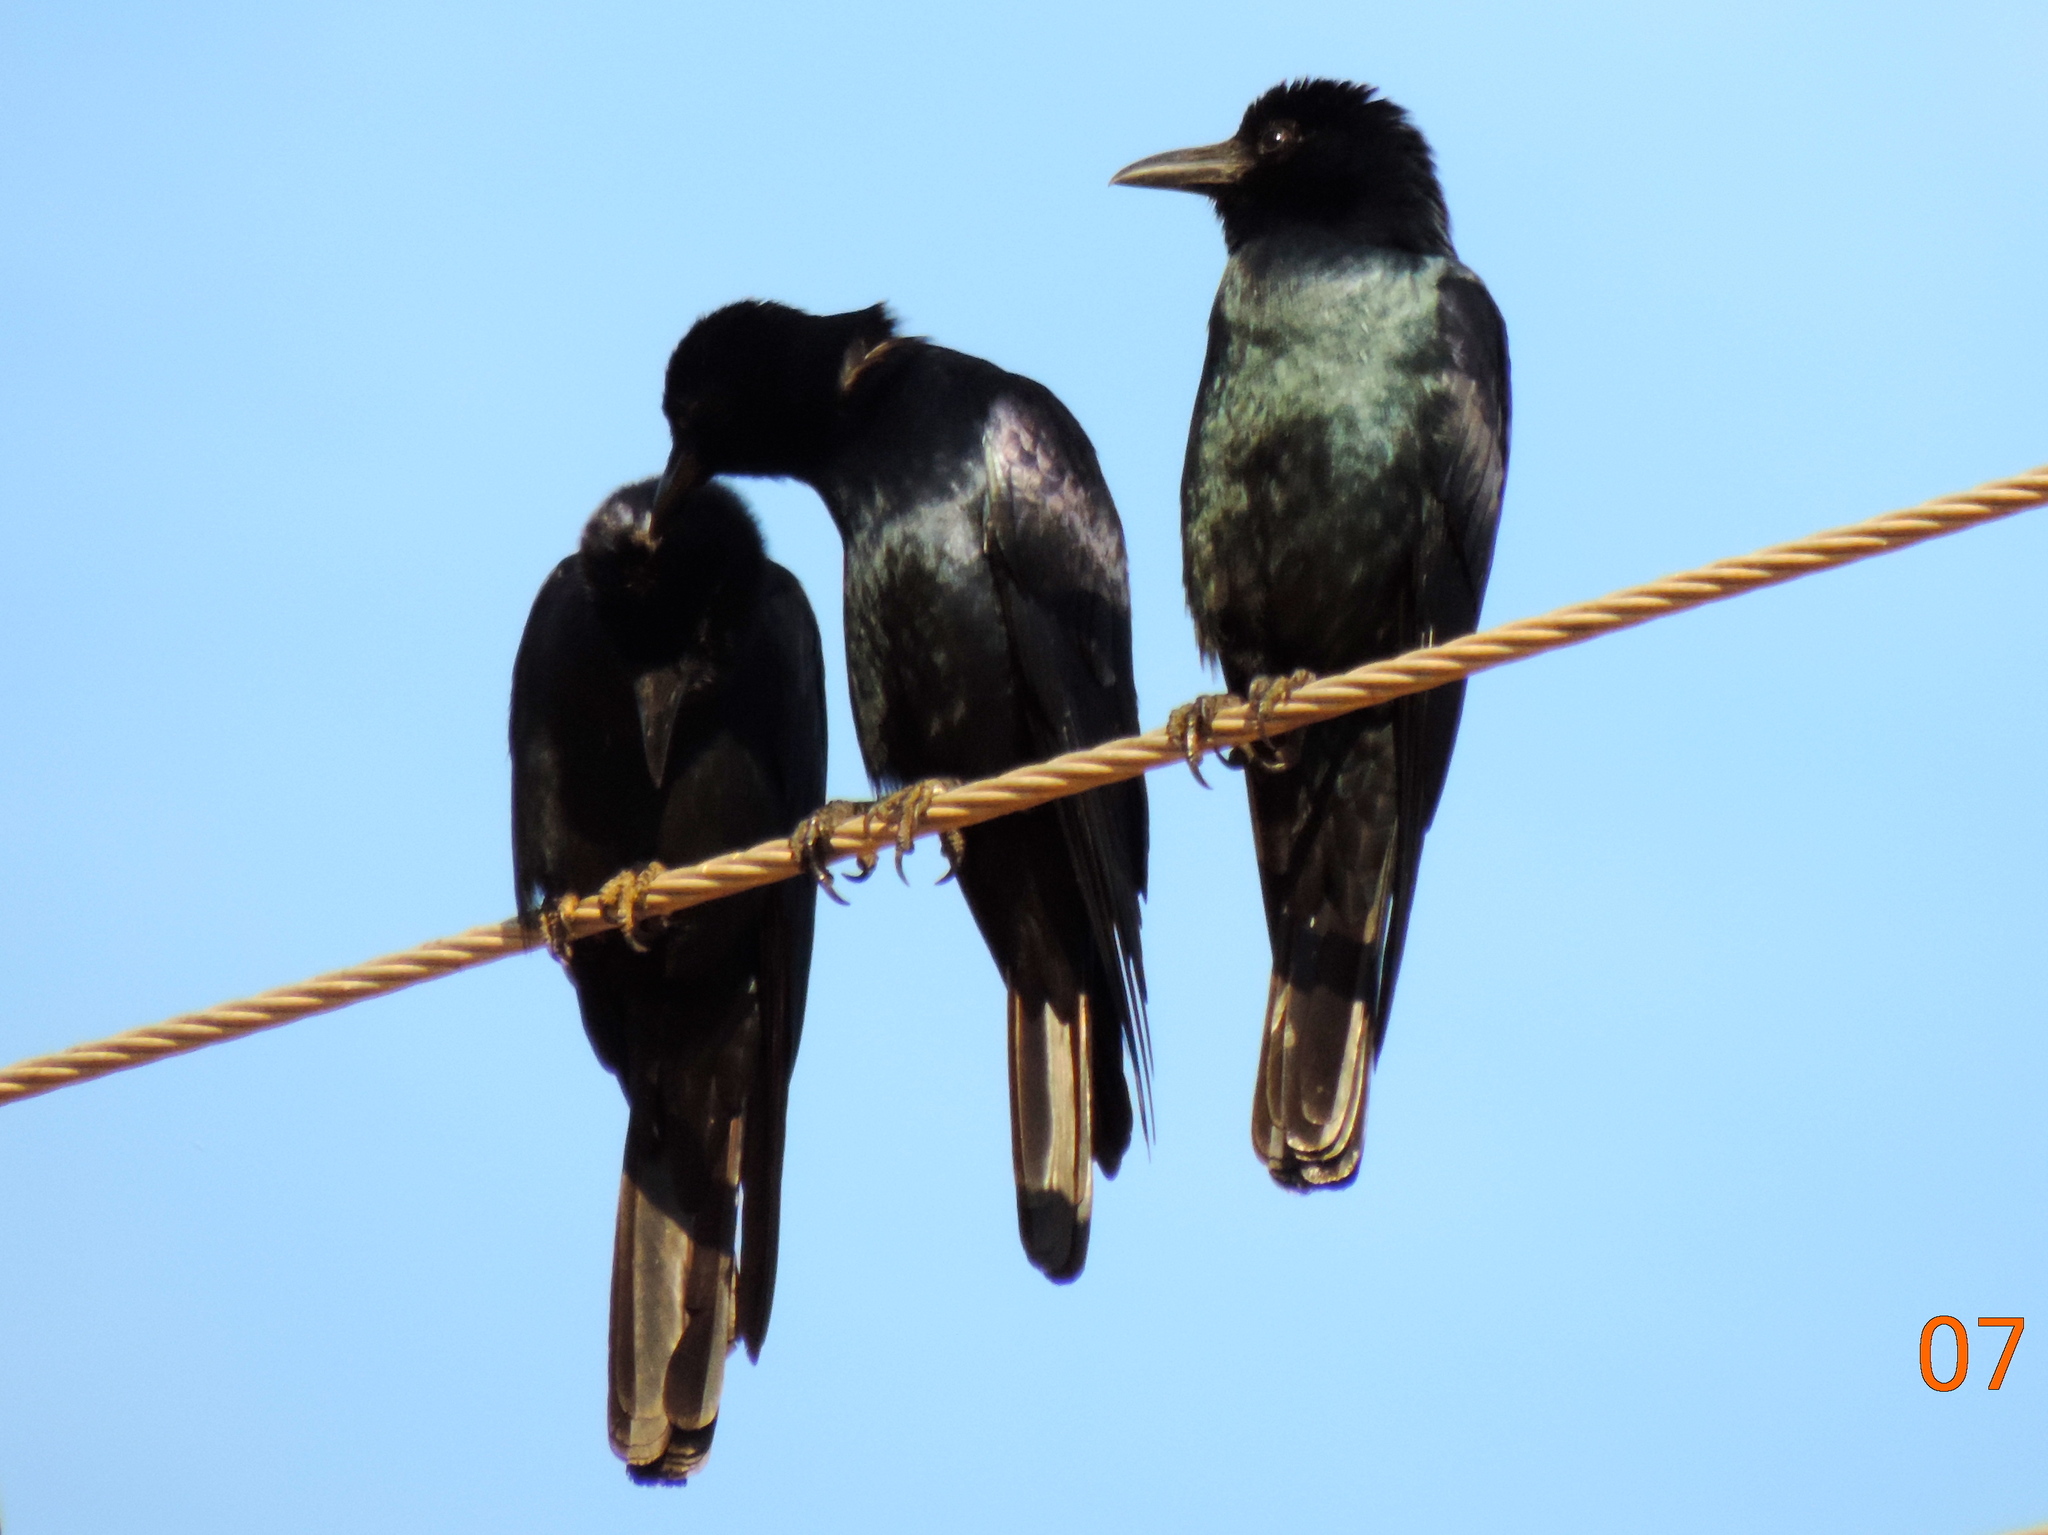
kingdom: Animalia
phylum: Chordata
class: Aves
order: Passeriformes
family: Corvidae
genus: Corvus
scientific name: Corvus sinaloae
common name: Sinaloa crow
